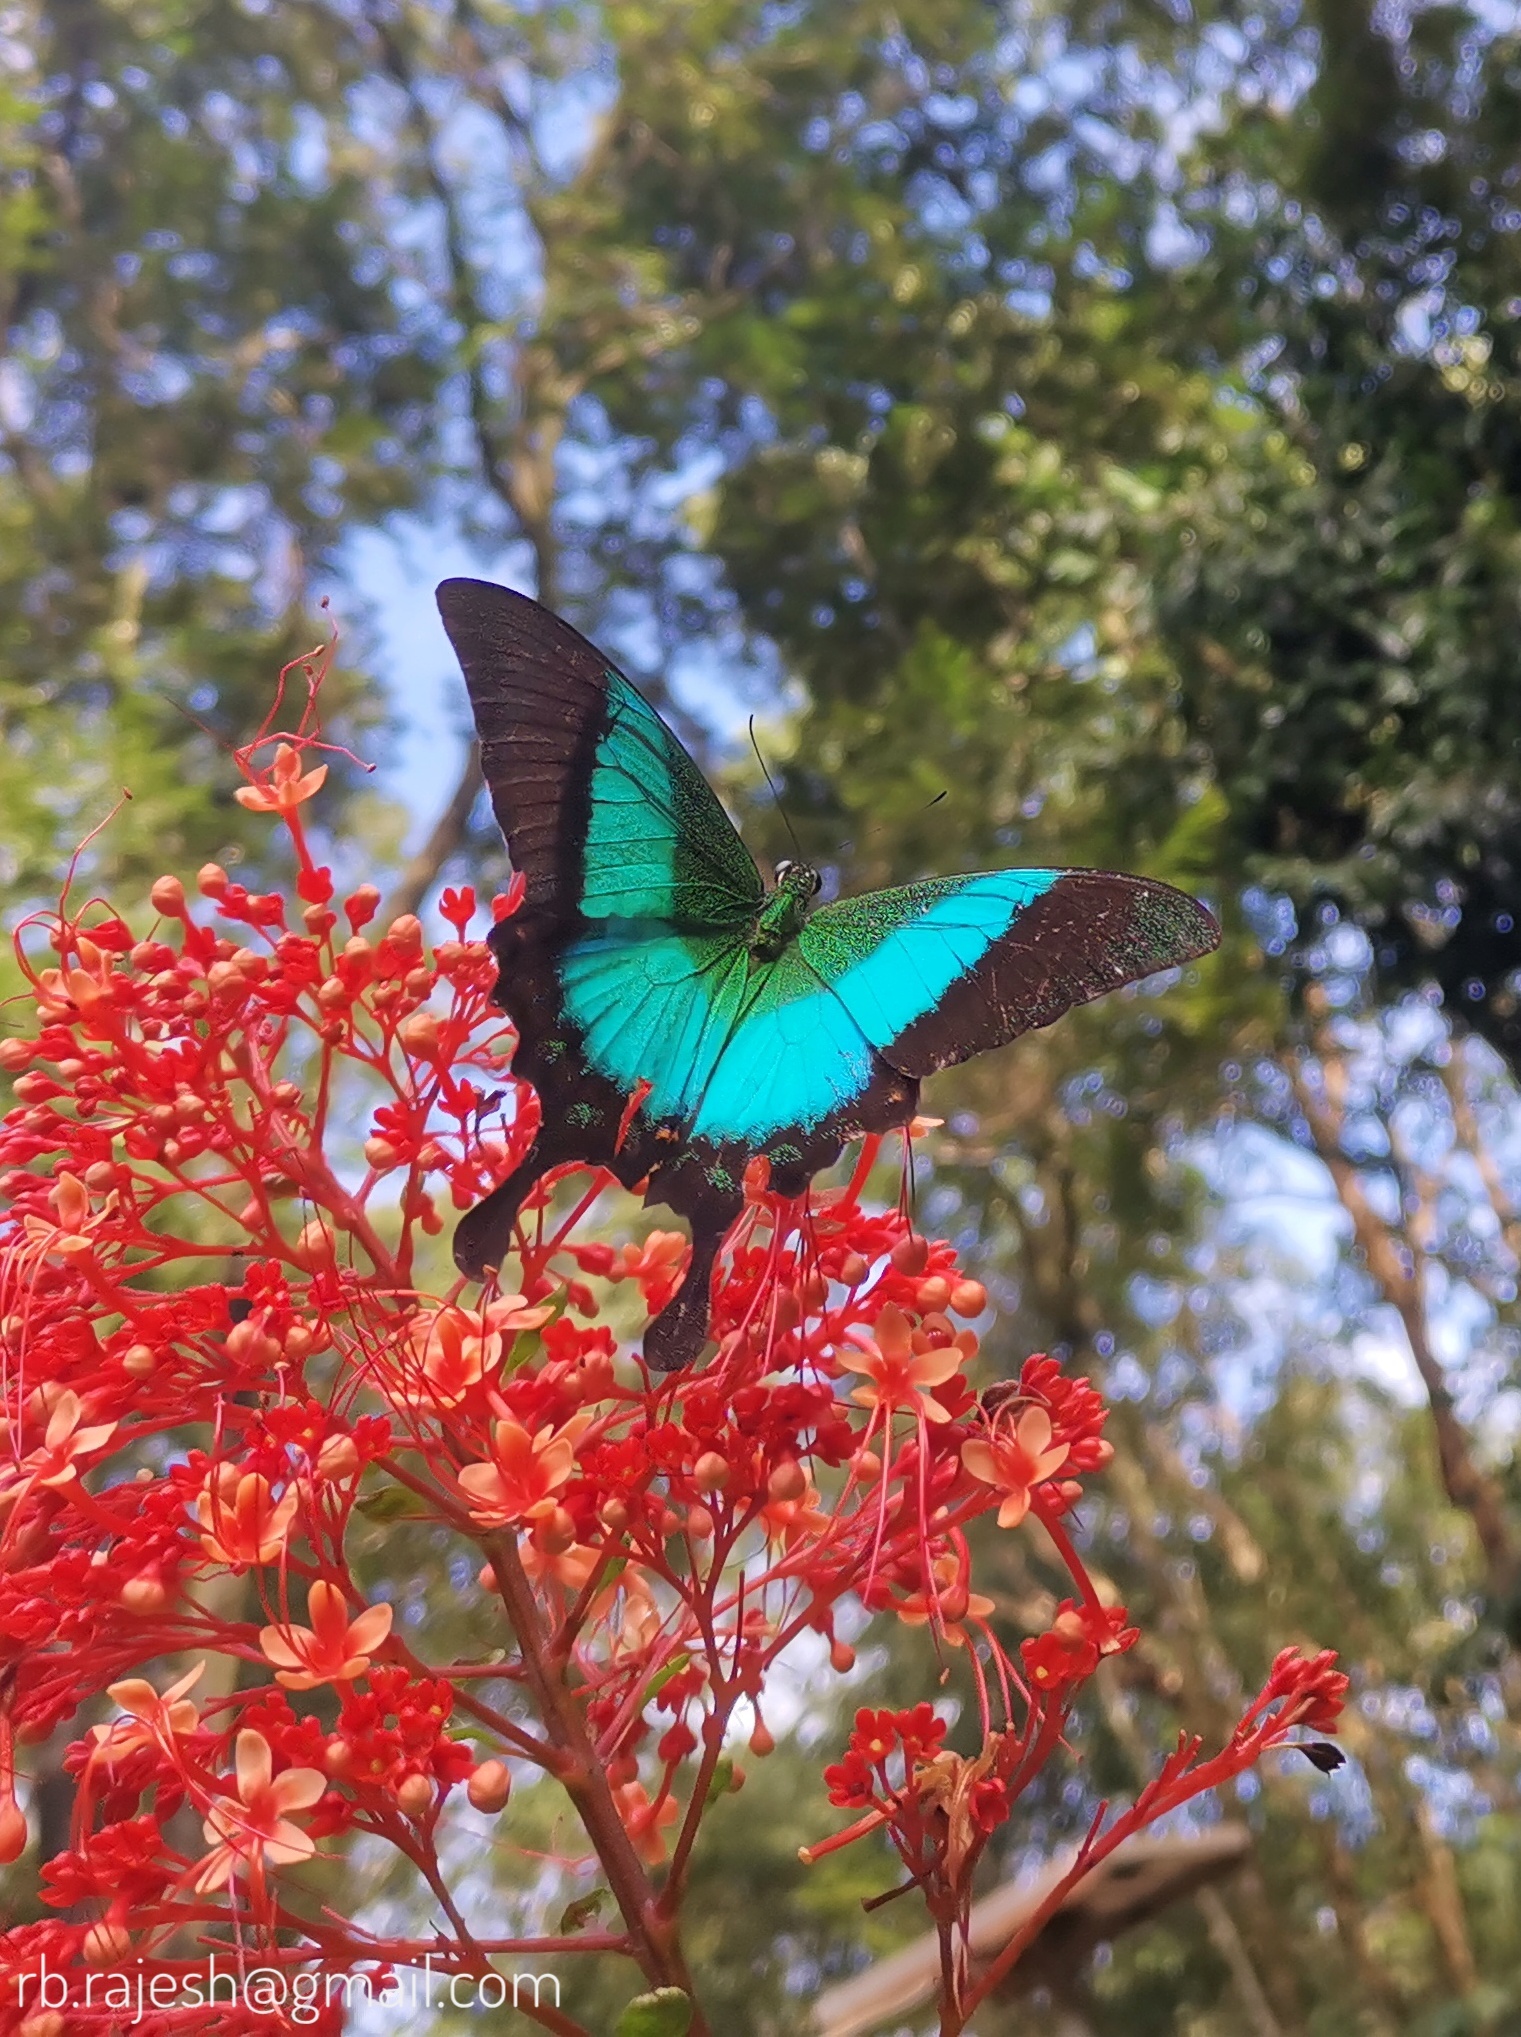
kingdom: Animalia
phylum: Arthropoda
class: Insecta
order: Lepidoptera
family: Papilionidae
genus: Papilio
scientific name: Papilio buddha
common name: Malabar banded peacock
